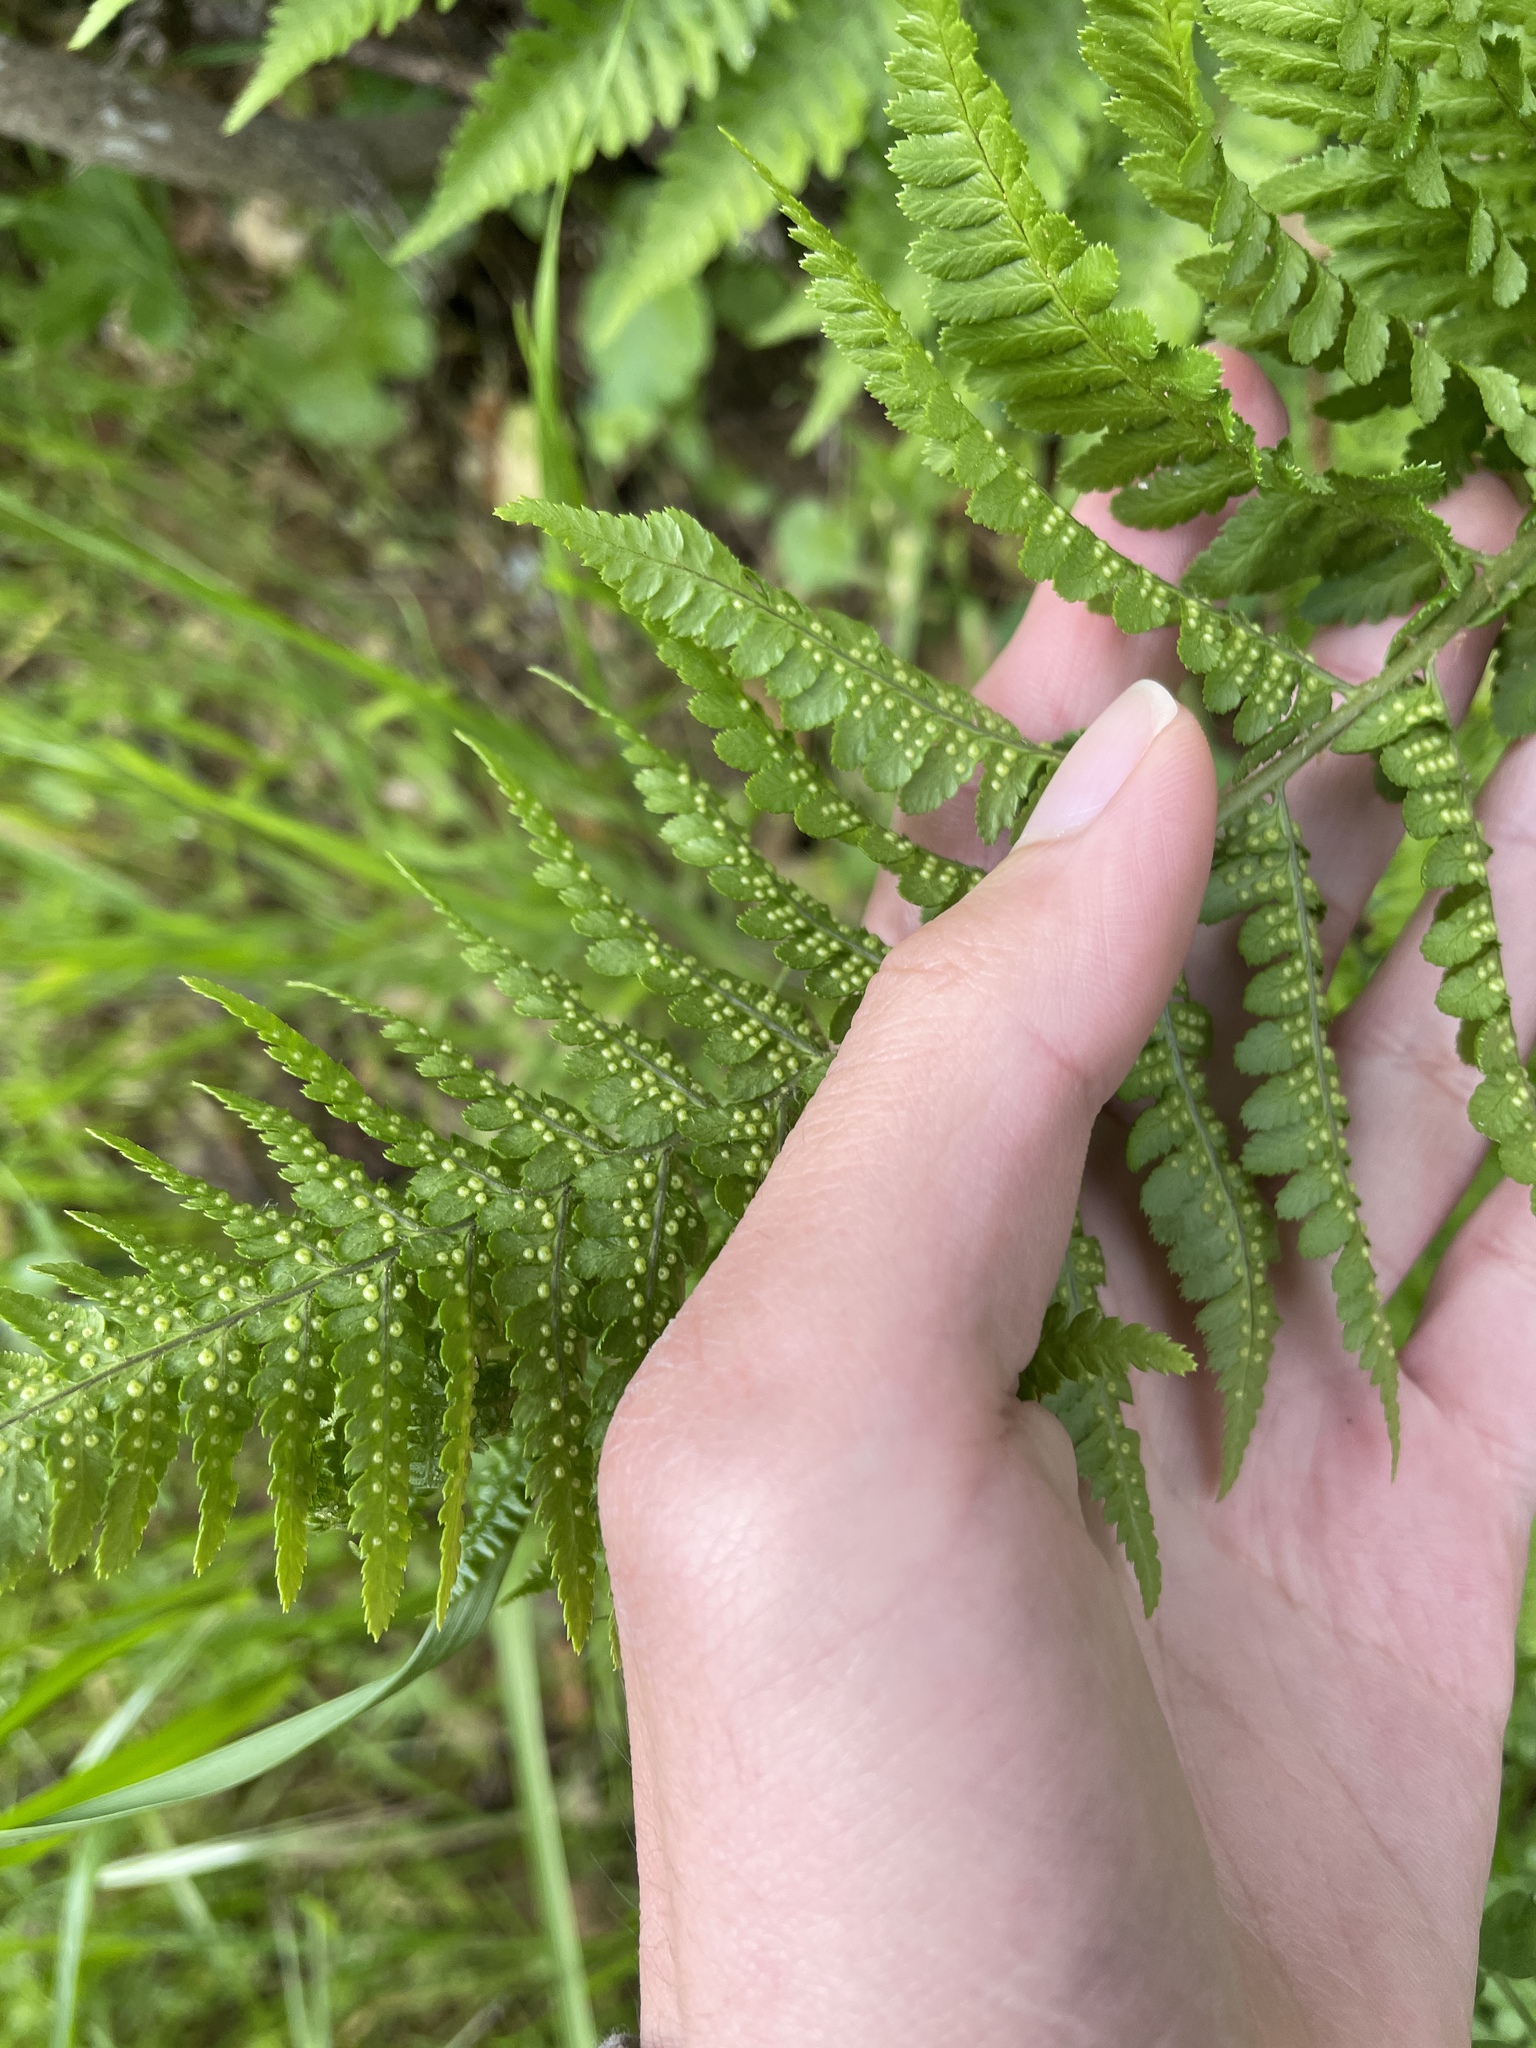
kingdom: Plantae
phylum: Tracheophyta
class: Polypodiopsida
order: Polypodiales
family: Dryopteridaceae
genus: Dryopteris
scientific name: Dryopteris arguta
